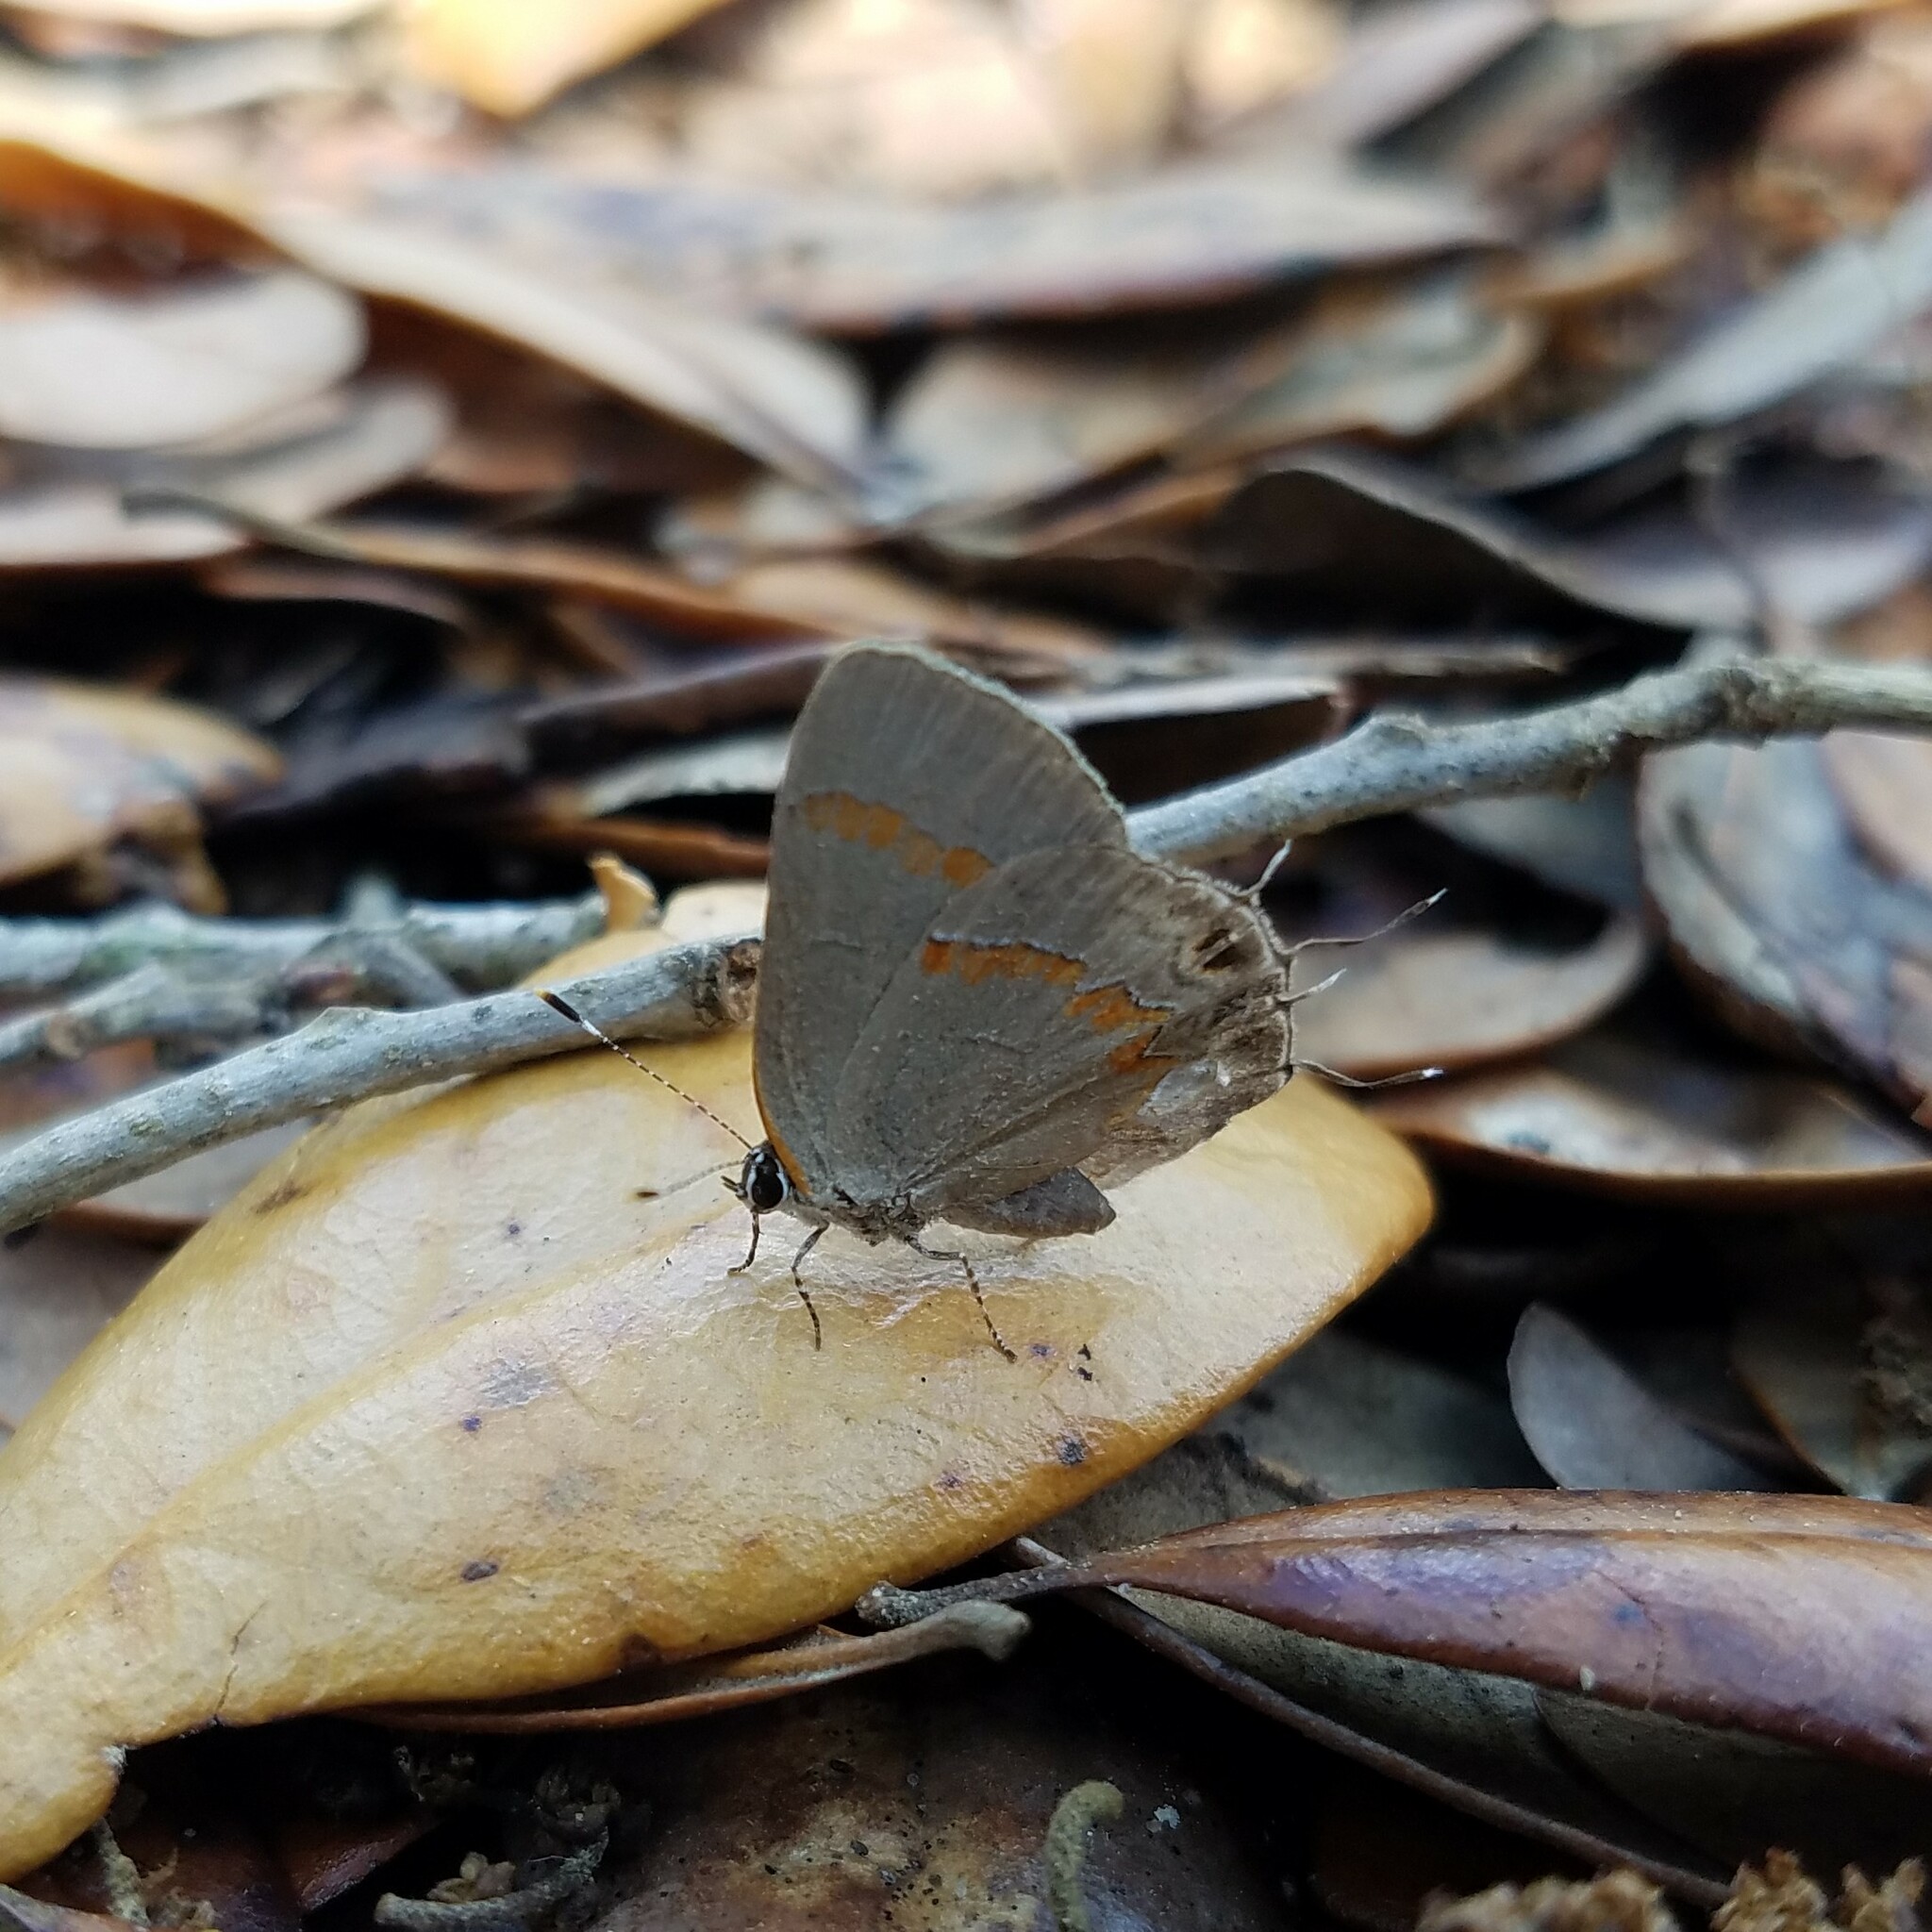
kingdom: Animalia
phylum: Arthropoda
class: Insecta
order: Lepidoptera
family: Lycaenidae
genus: Calycopis
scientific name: Calycopis cecrops
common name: Red-banded hairstreak
